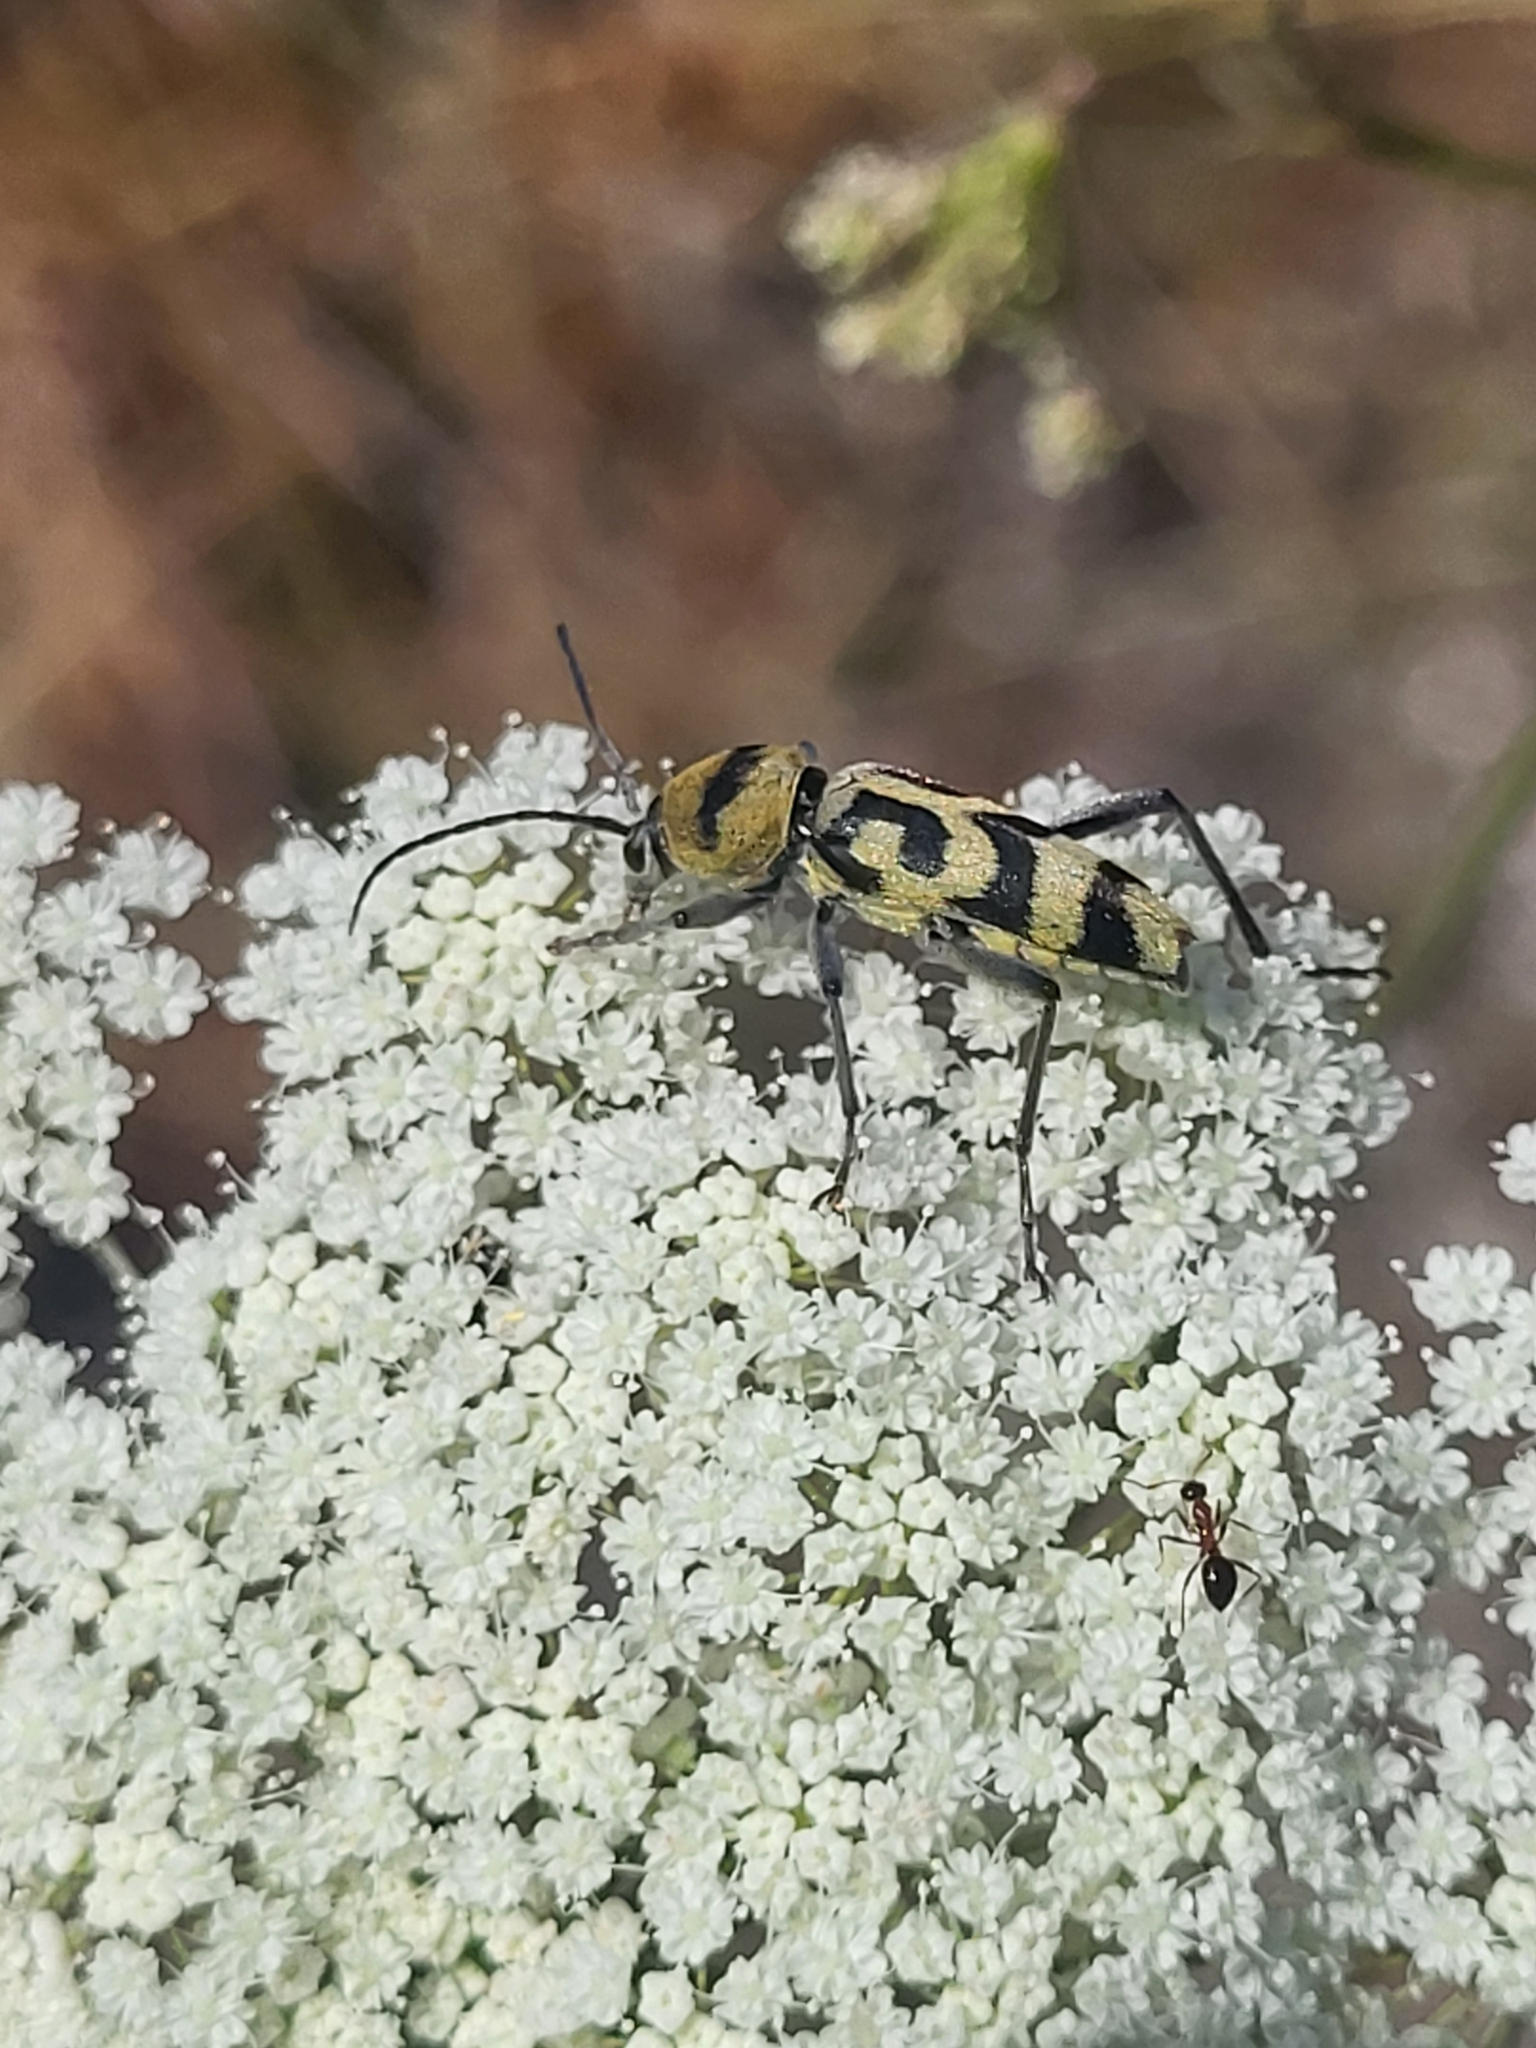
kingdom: Animalia
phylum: Arthropoda
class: Insecta
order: Coleoptera
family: Cerambycidae
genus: Chlorophorus
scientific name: Chlorophorus varius
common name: Grape wood borer
